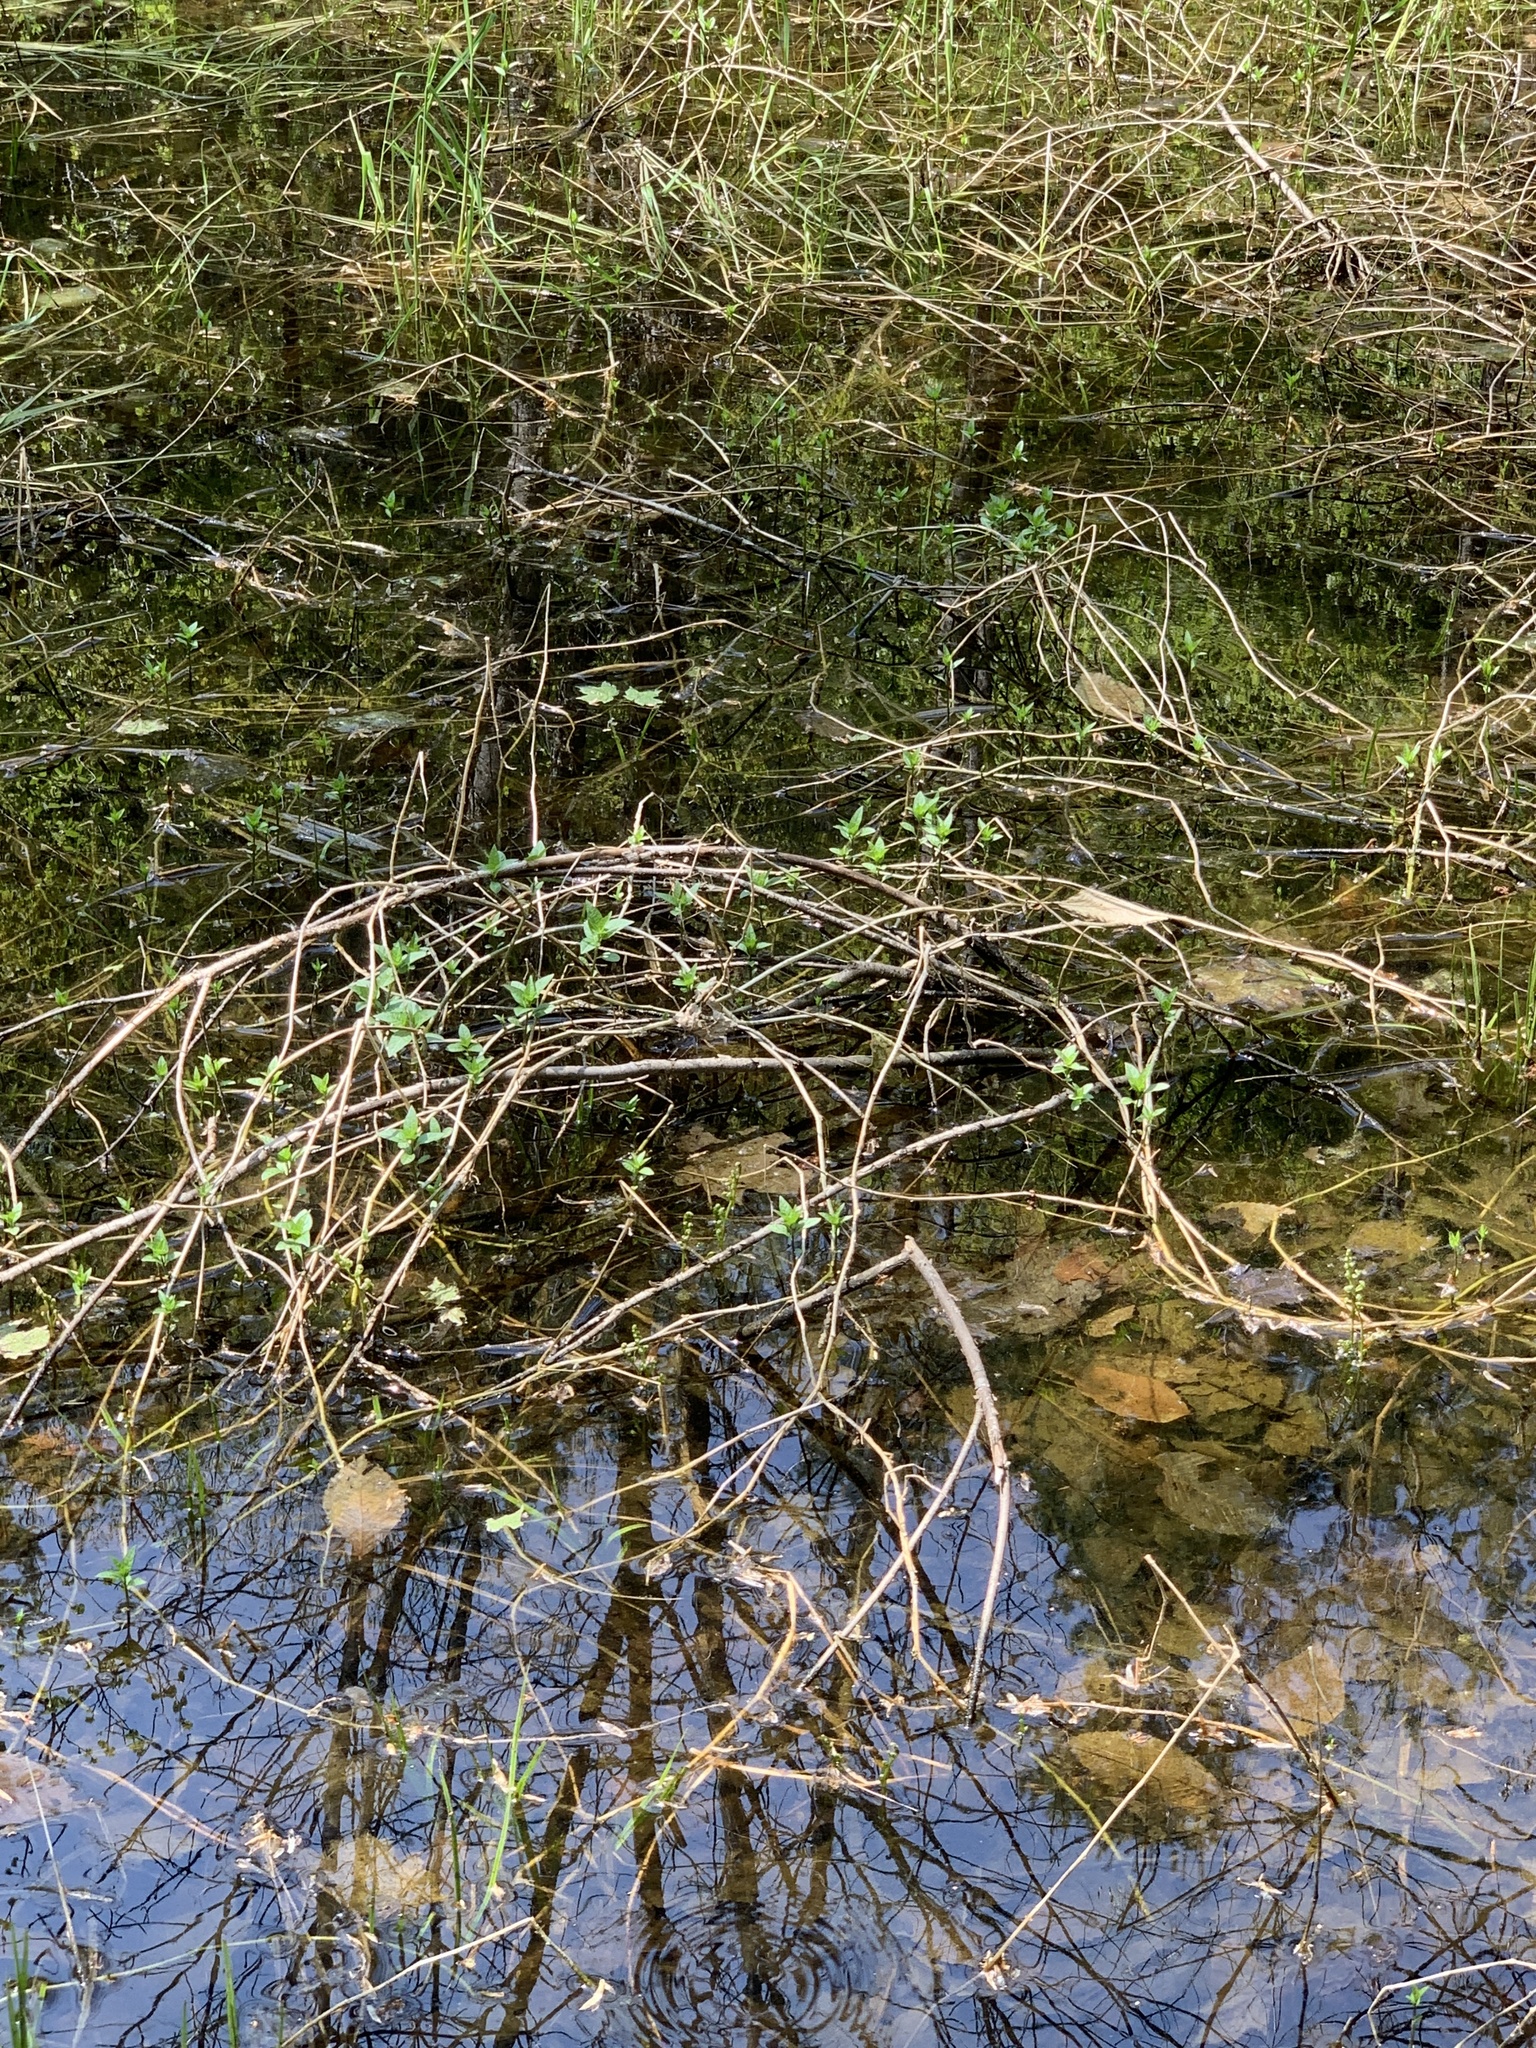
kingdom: Plantae
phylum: Tracheophyta
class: Magnoliopsida
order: Solanales
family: Solanaceae
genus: Solanum
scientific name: Solanum dulcamara
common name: Climbing nightshade
